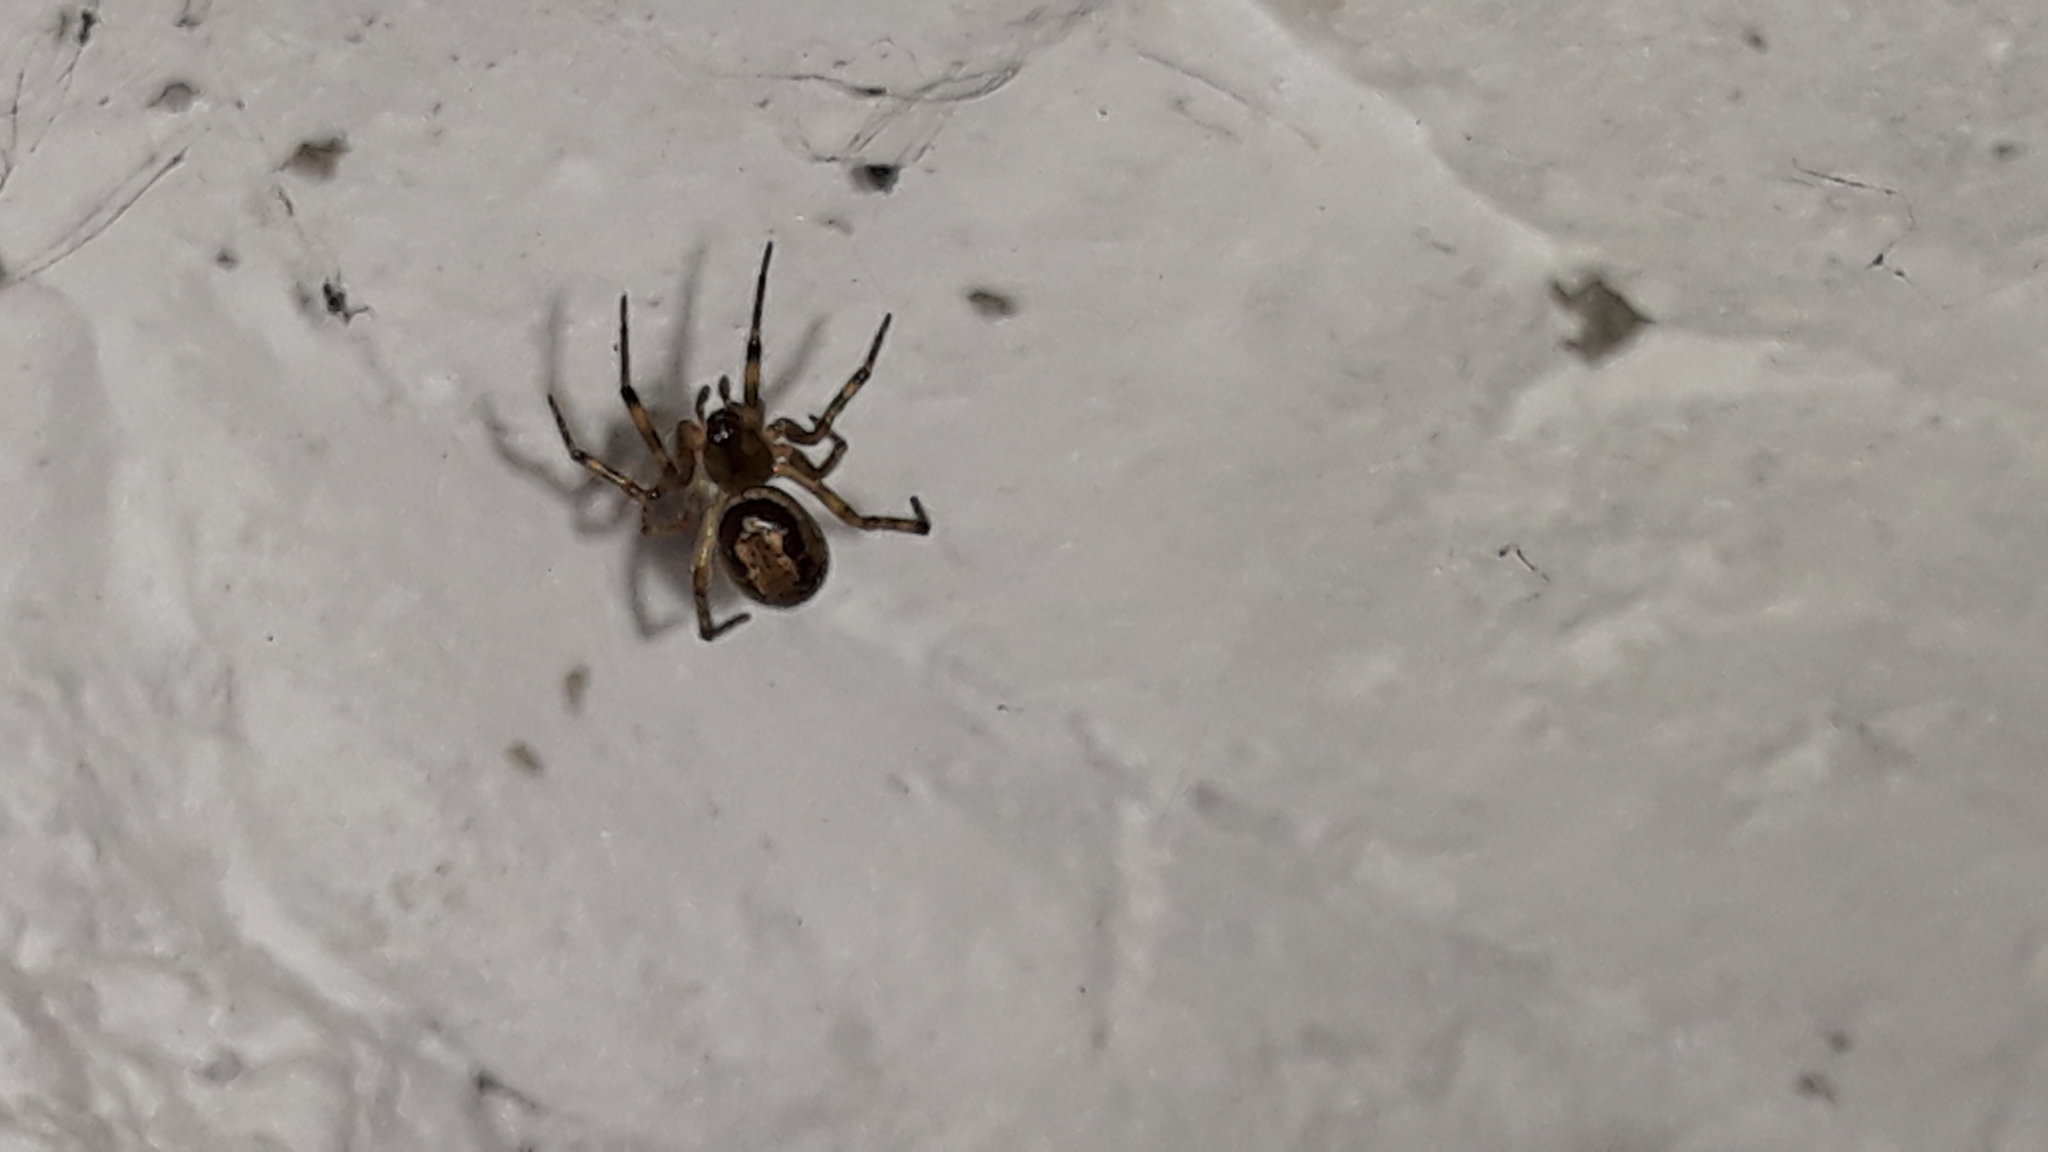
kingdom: Animalia
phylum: Arthropoda
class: Arachnida
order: Araneae
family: Theridiidae
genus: Steatoda
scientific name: Steatoda nobilis
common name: Cobweb weaver
